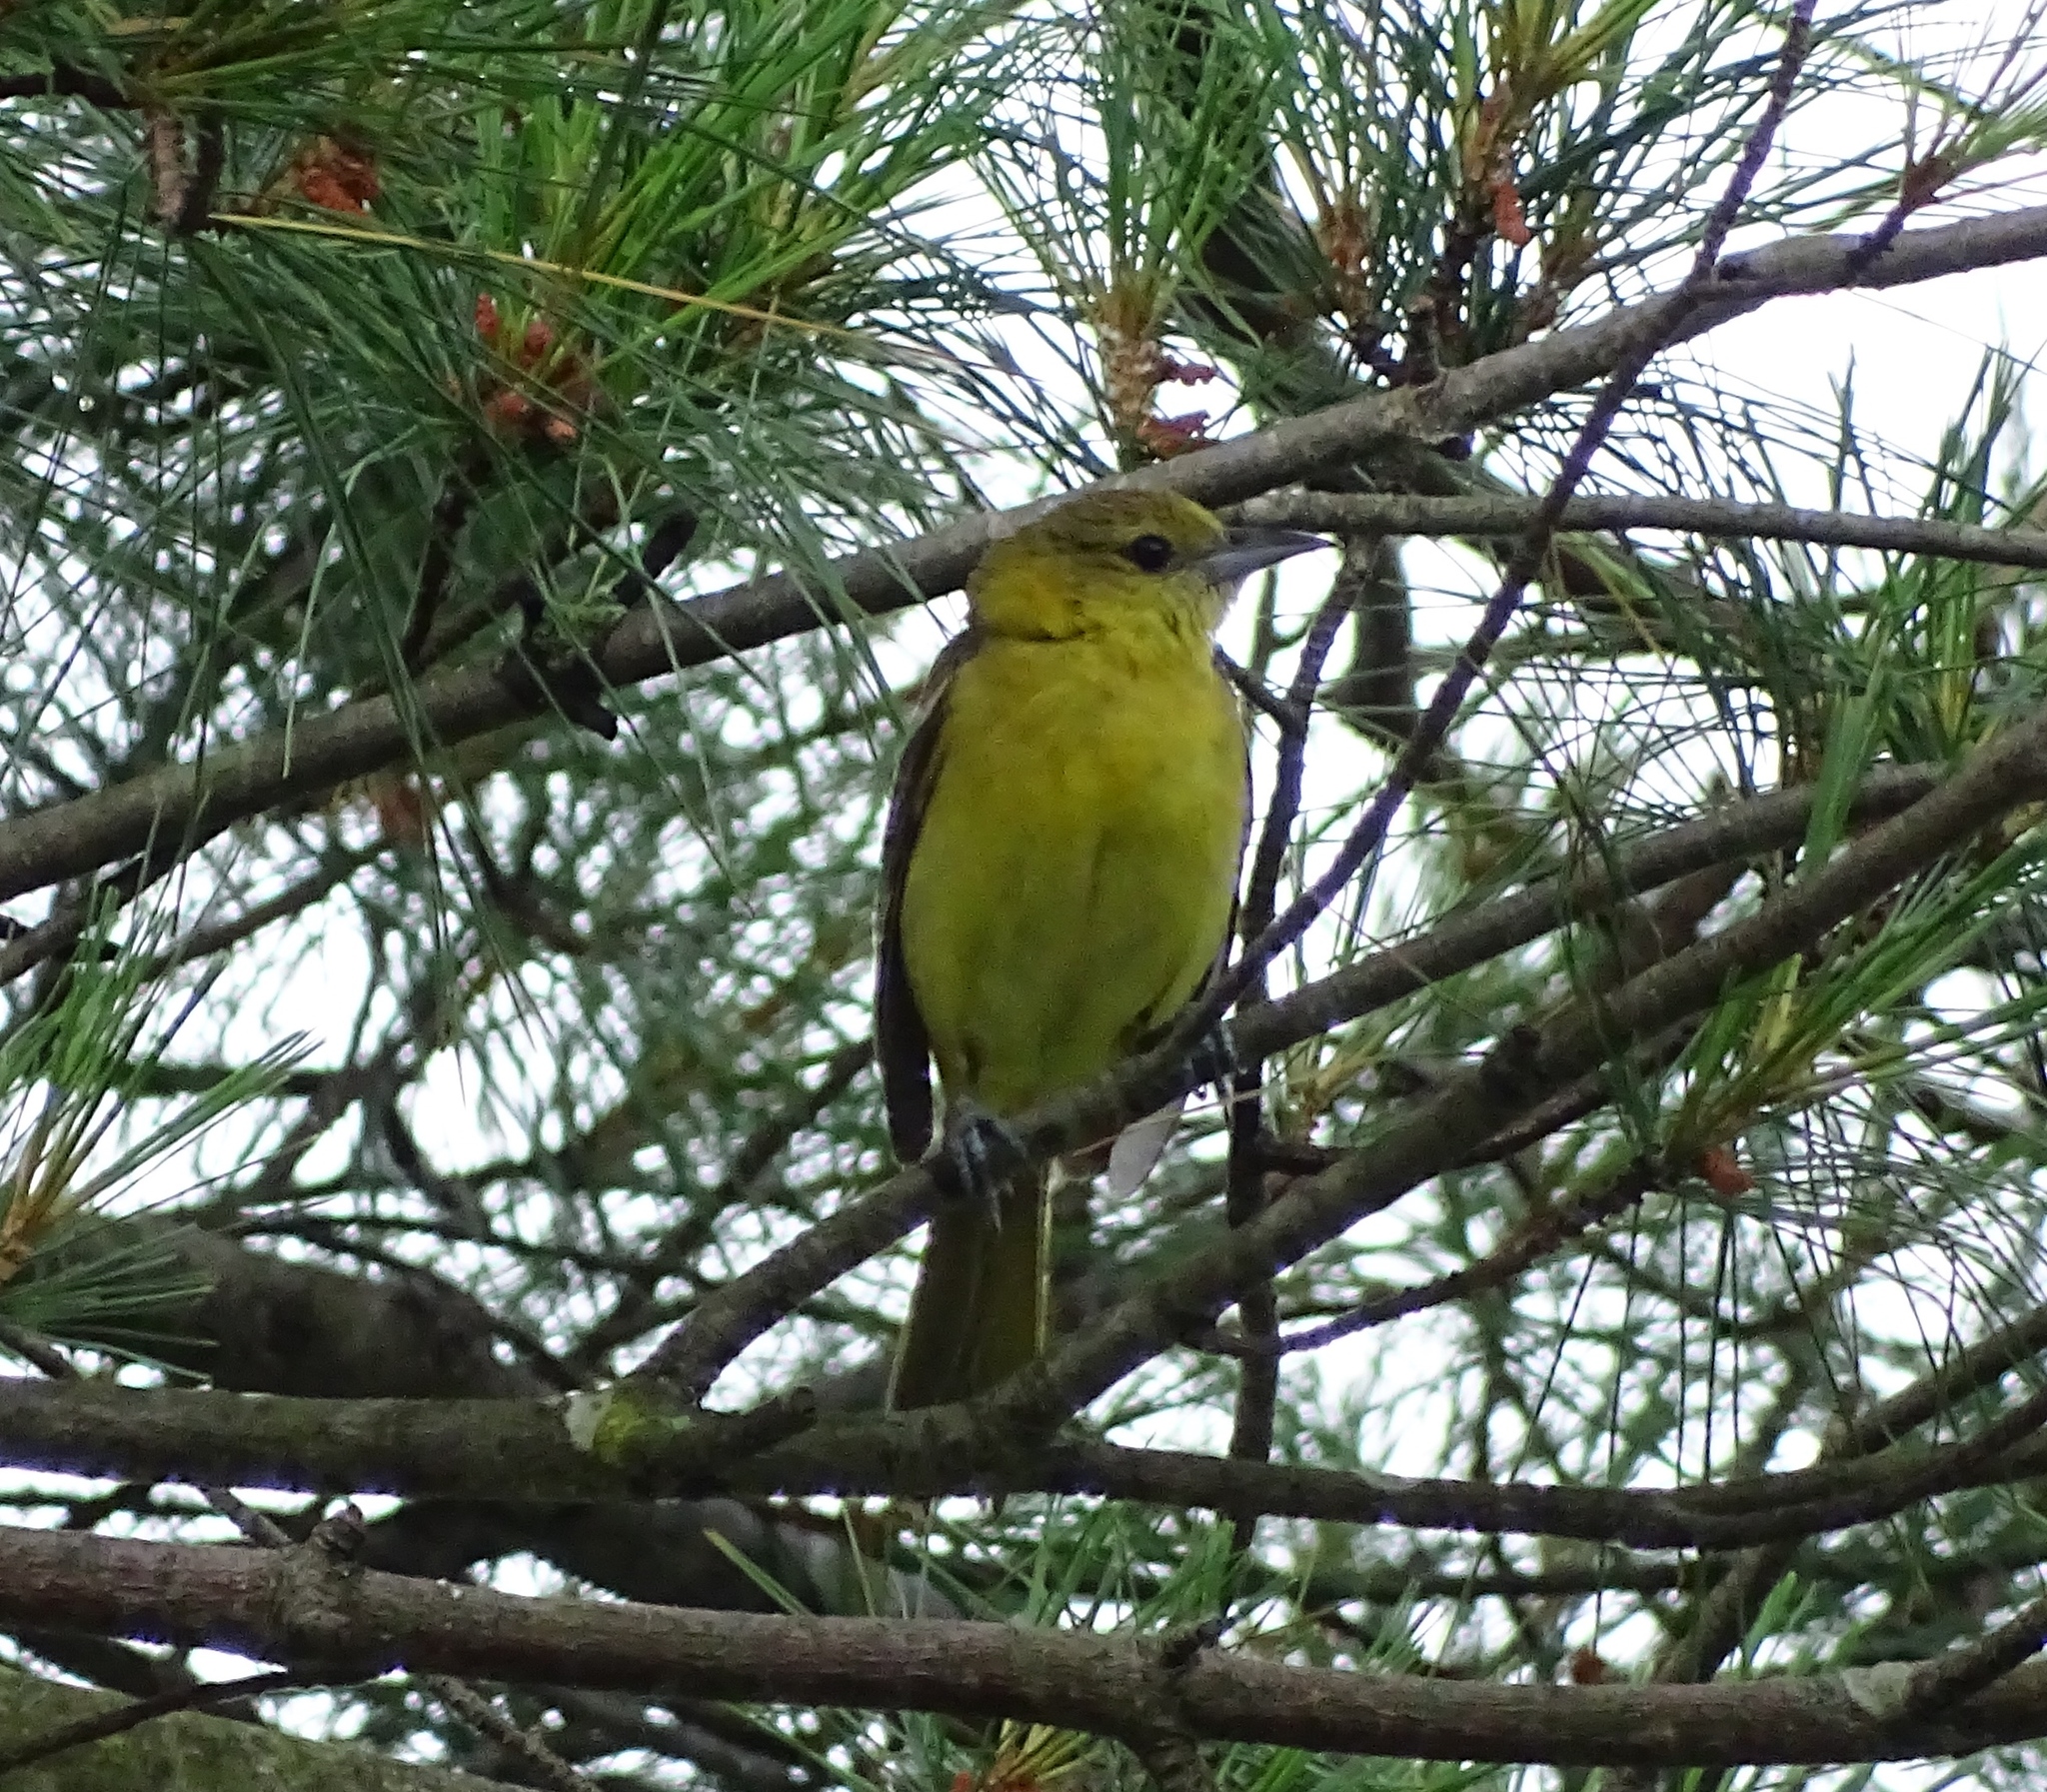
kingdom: Animalia
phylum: Chordata
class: Aves
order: Passeriformes
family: Icteridae
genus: Icterus
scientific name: Icterus spurius
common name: Orchard oriole
